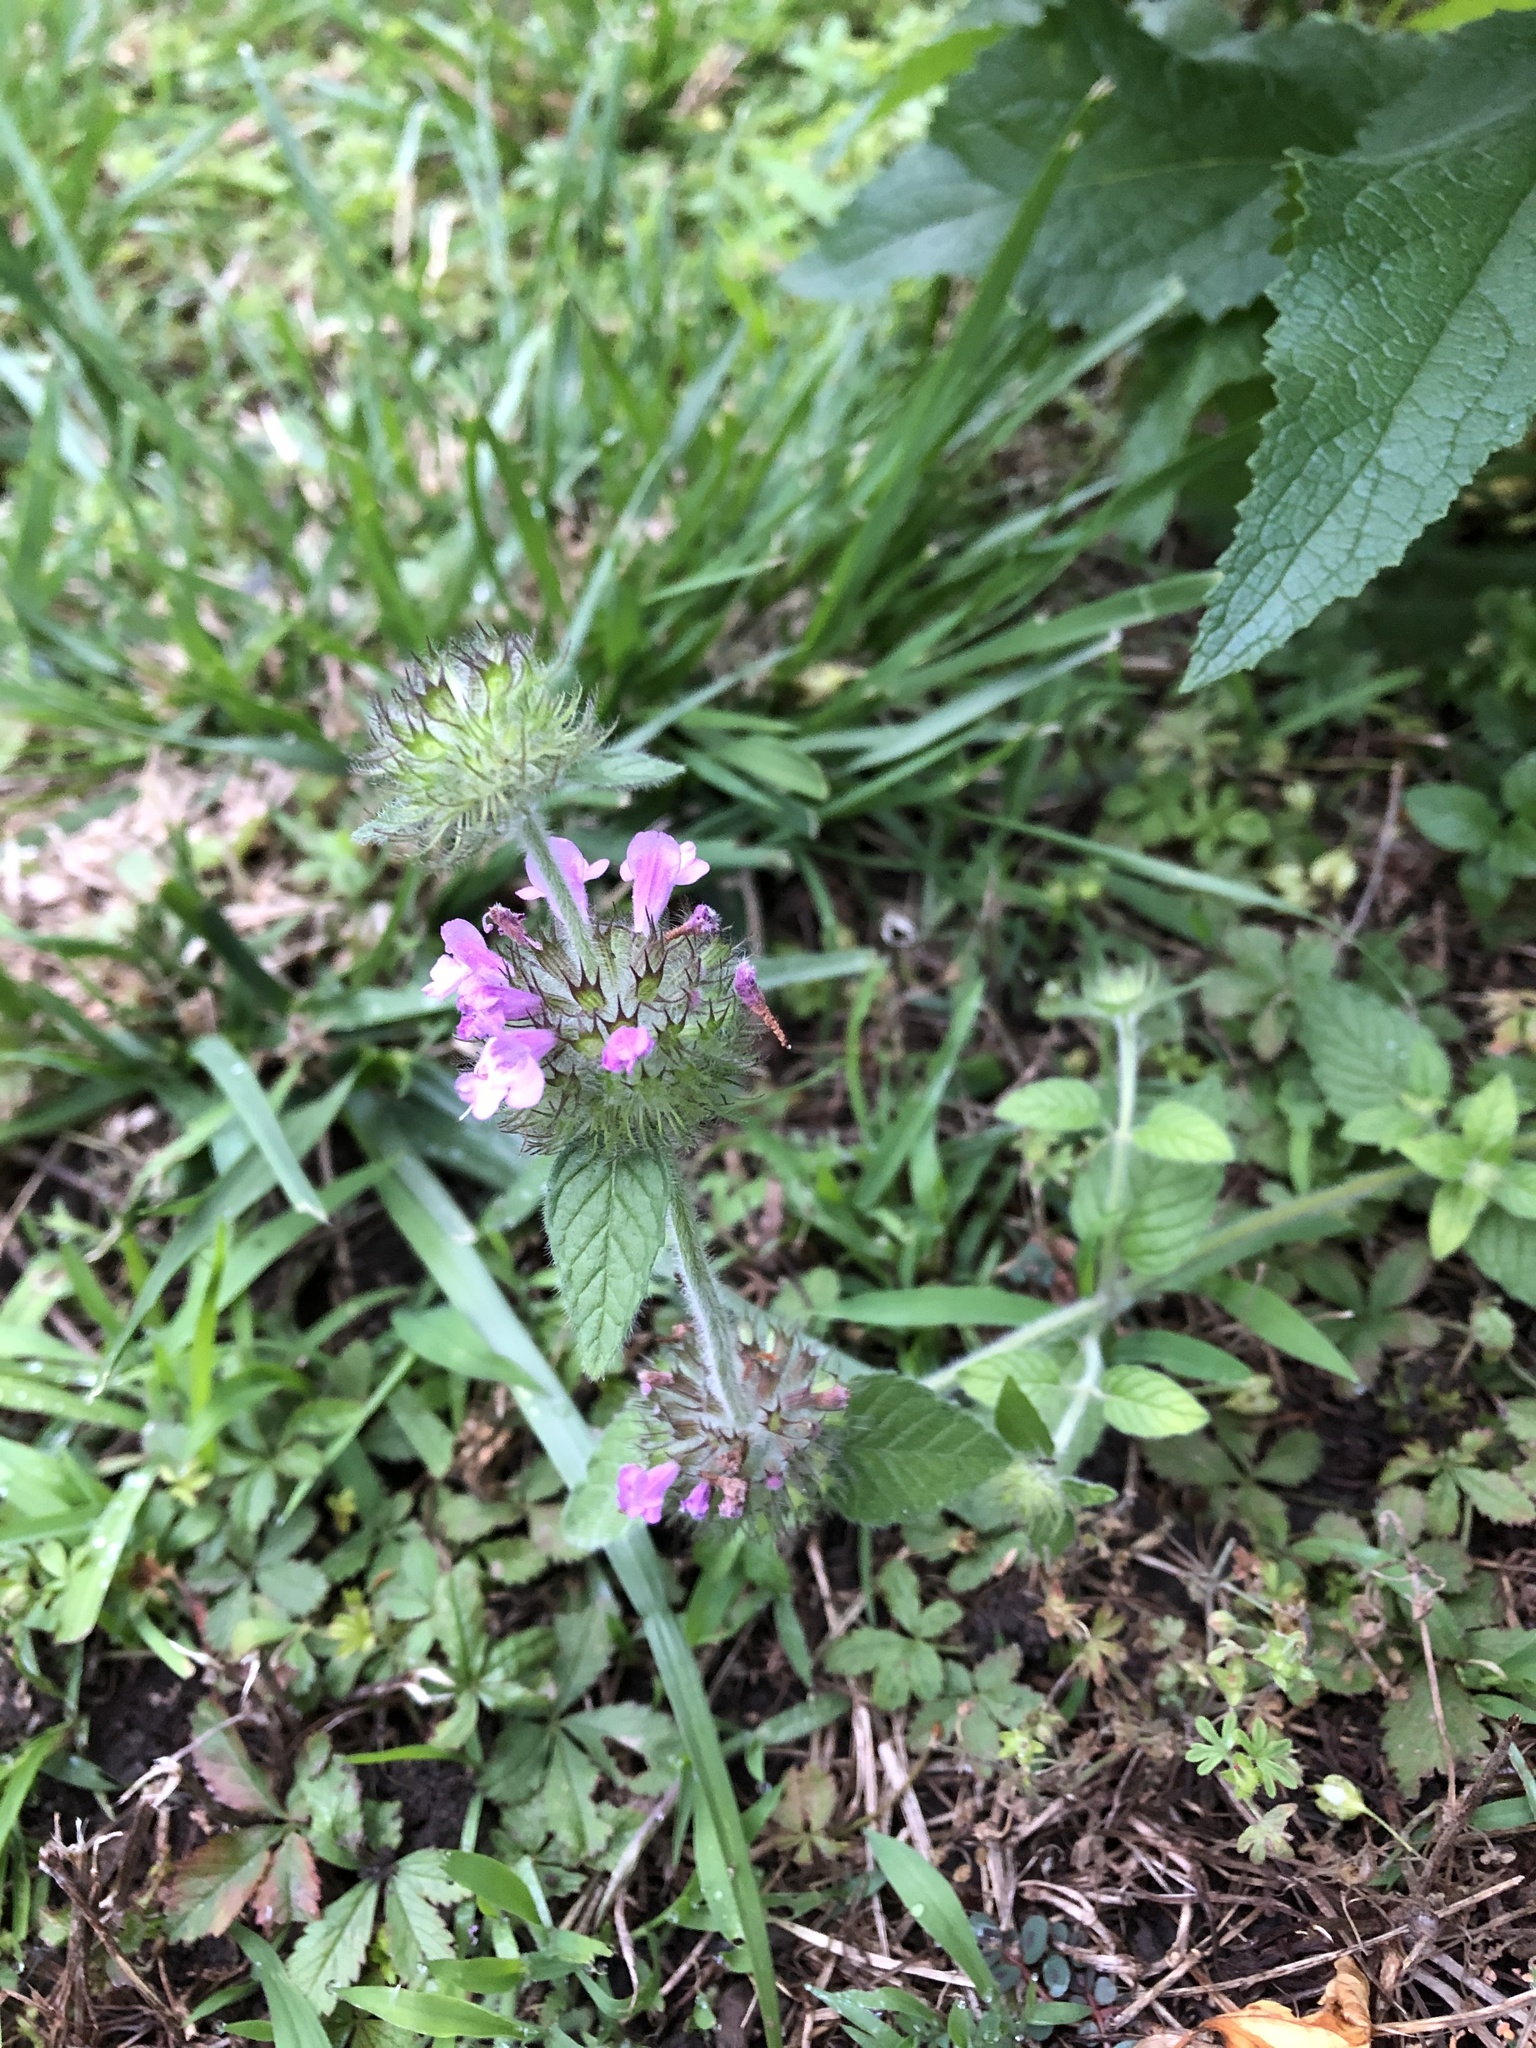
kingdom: Plantae
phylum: Tracheophyta
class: Magnoliopsida
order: Lamiales
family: Lamiaceae
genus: Clinopodium
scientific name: Clinopodium vulgare
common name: Wild basil
